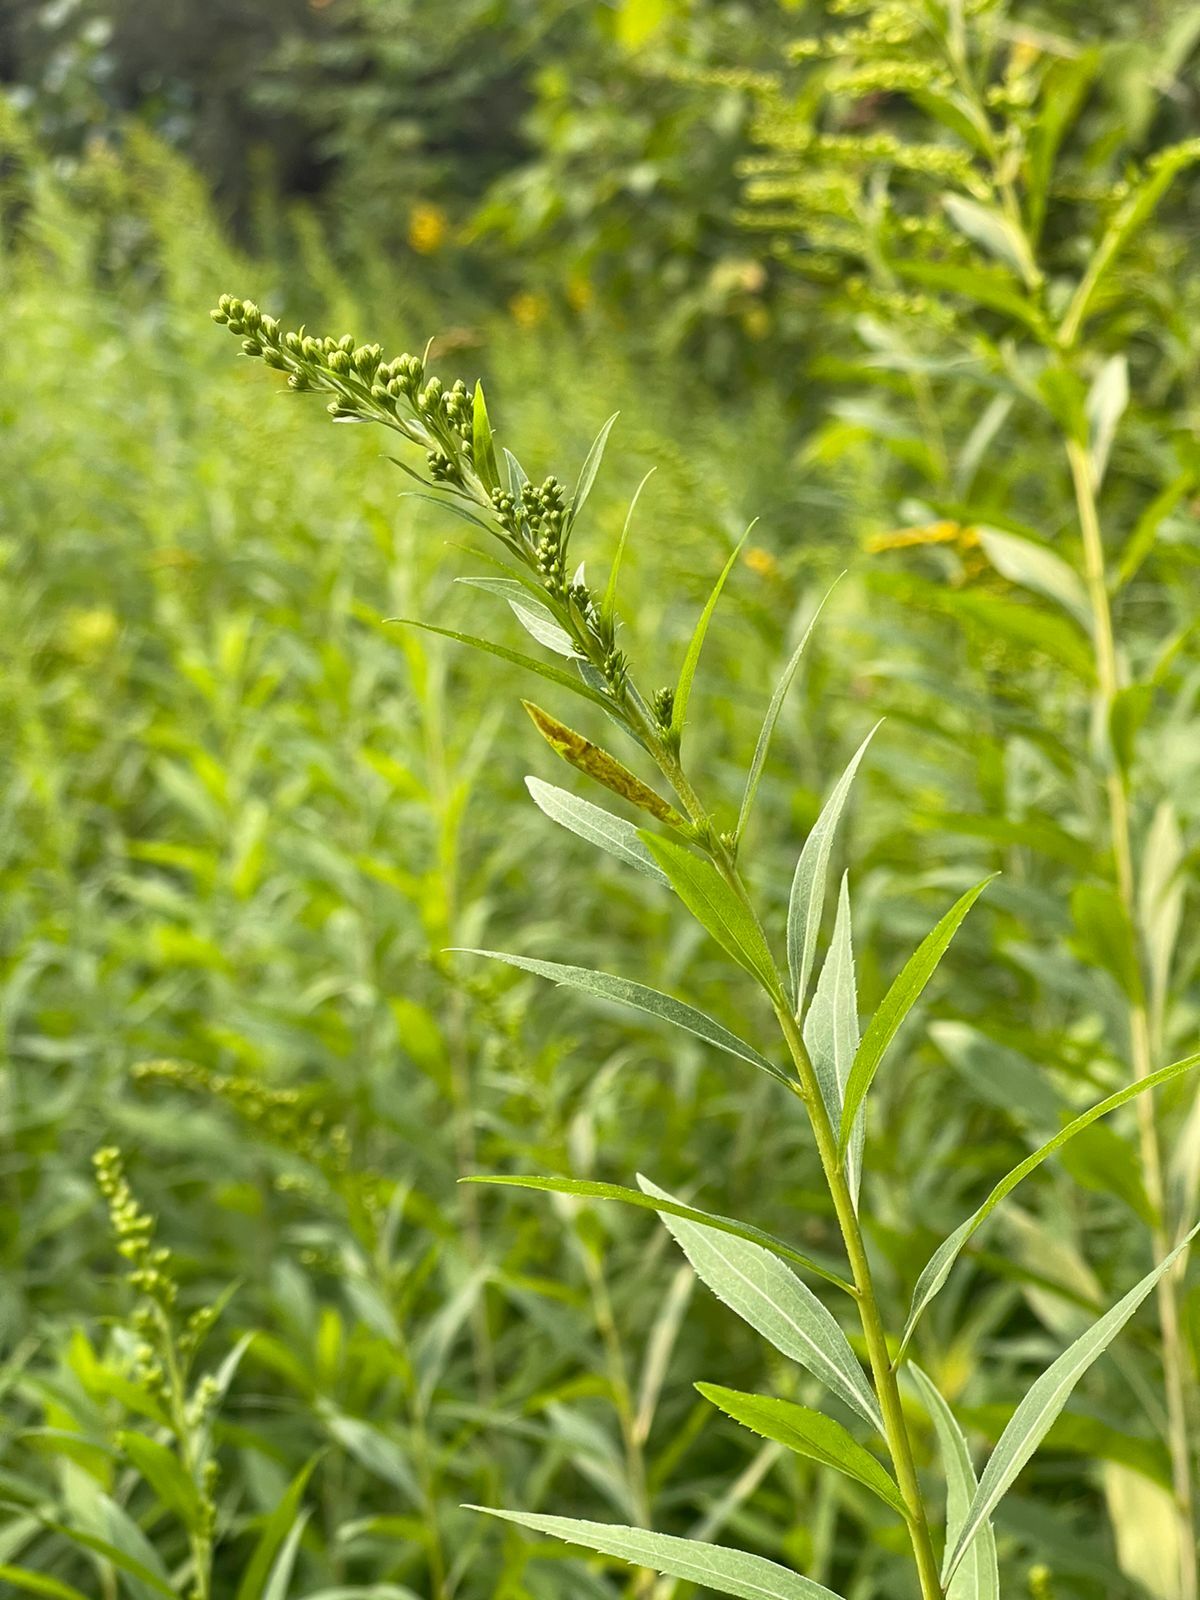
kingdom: Plantae
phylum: Tracheophyta
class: Magnoliopsida
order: Asterales
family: Asteraceae
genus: Solidago
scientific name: Solidago gigantea
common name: Giant goldenrod
